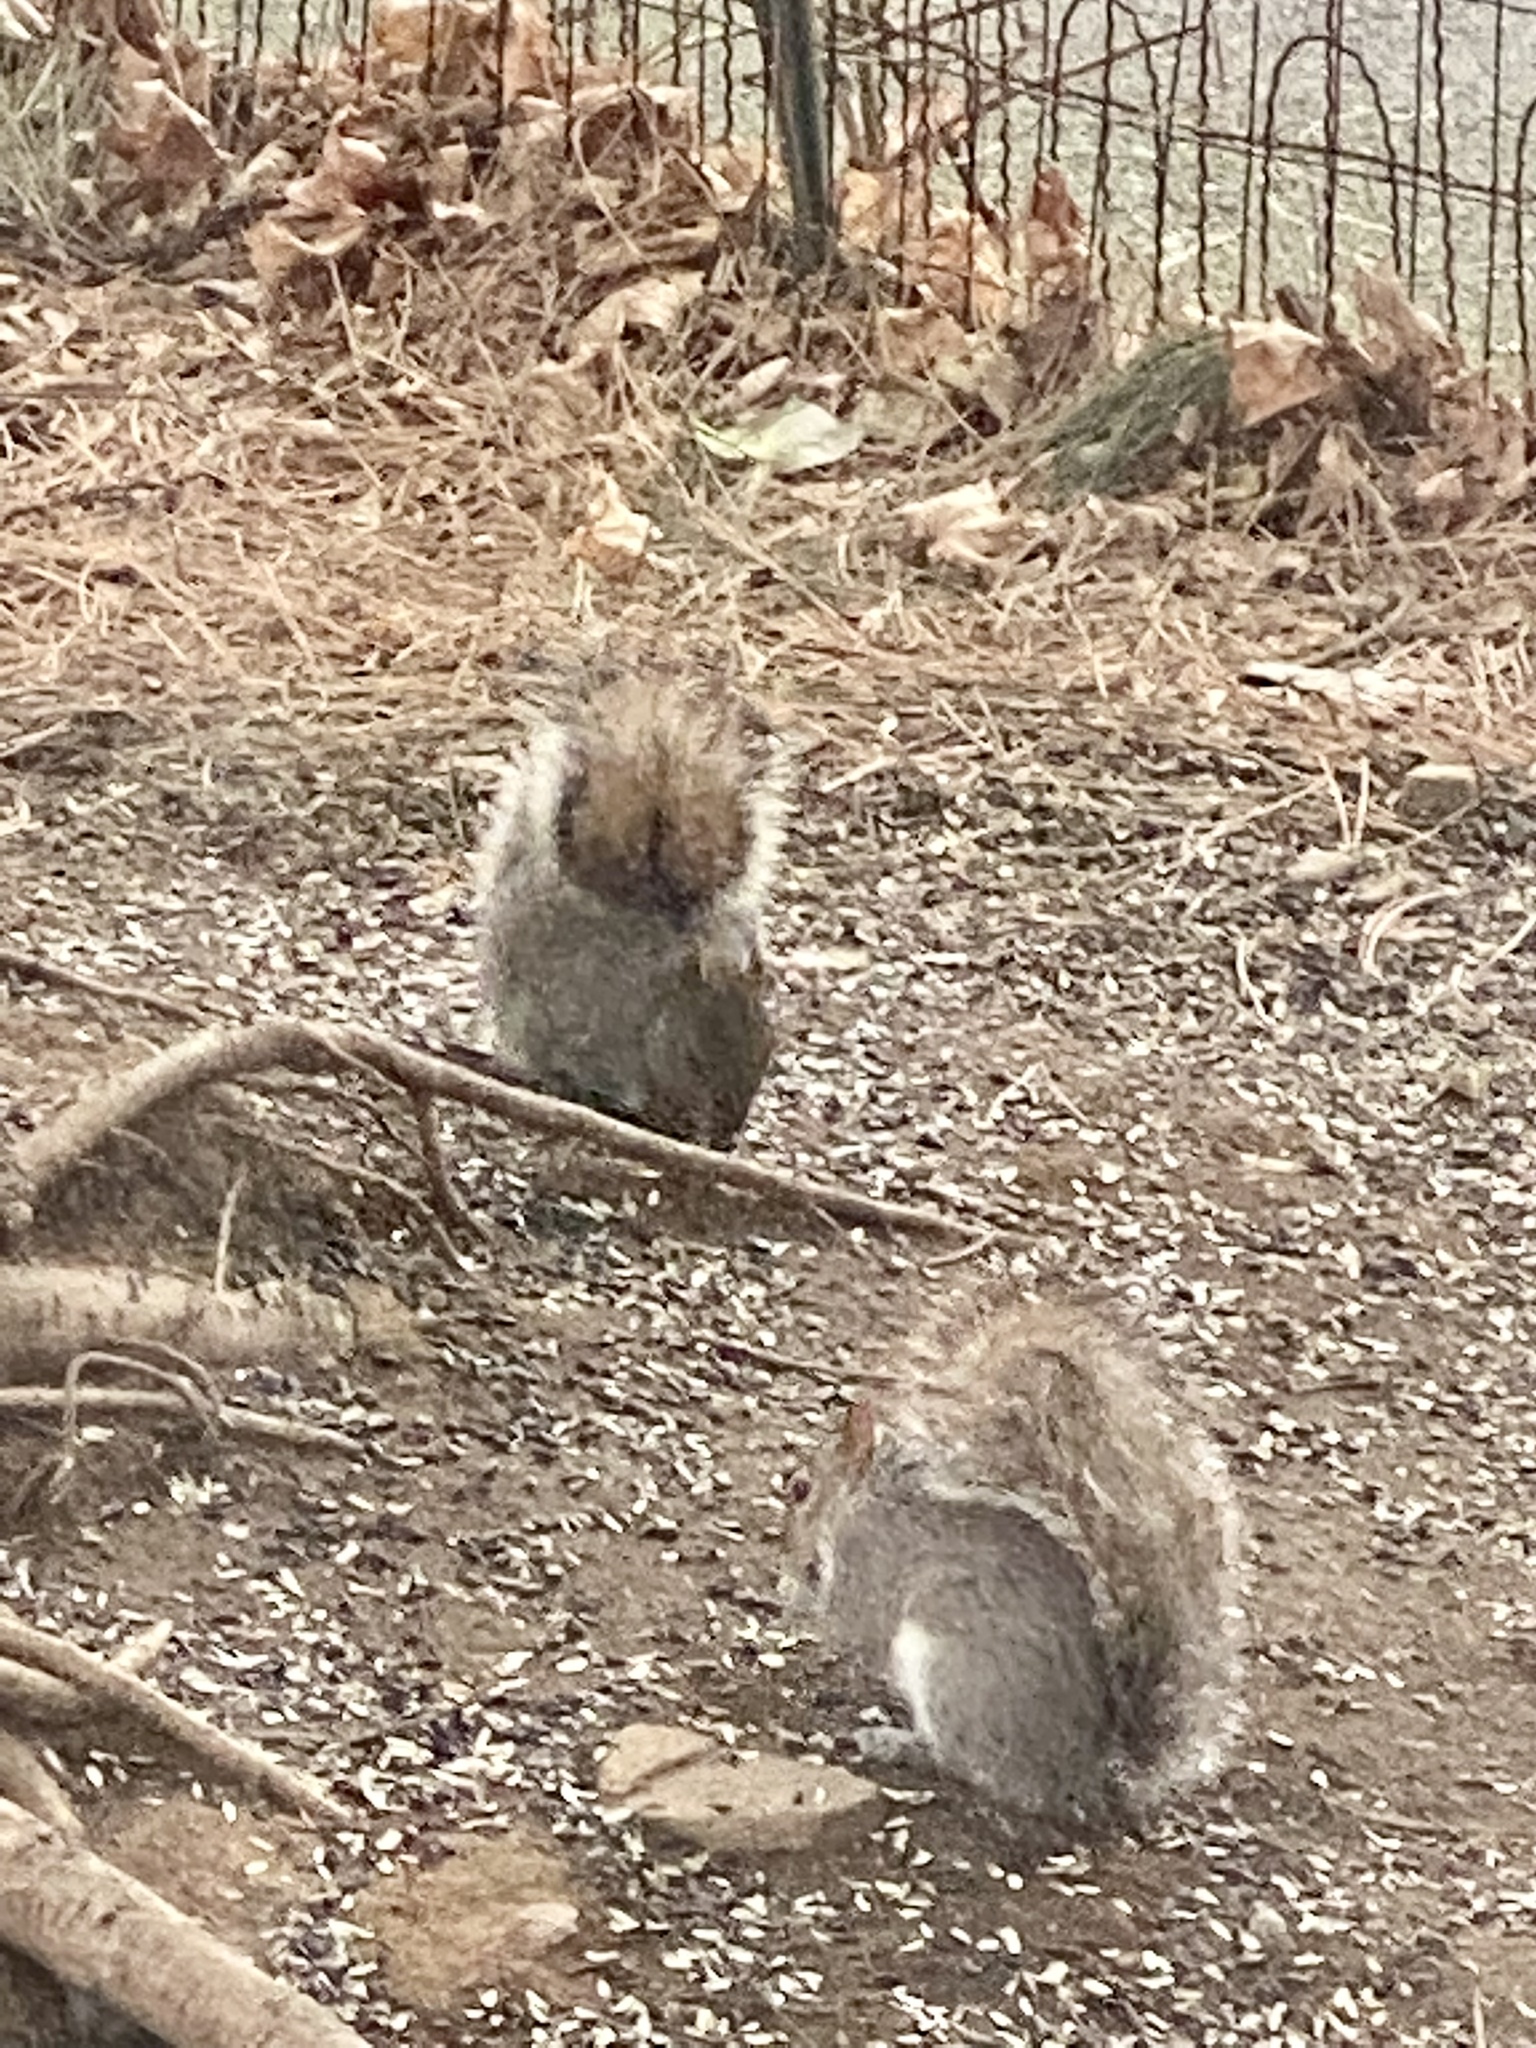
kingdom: Animalia
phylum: Chordata
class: Mammalia
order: Rodentia
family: Sciuridae
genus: Sciurus
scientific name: Sciurus carolinensis
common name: Eastern gray squirrel
